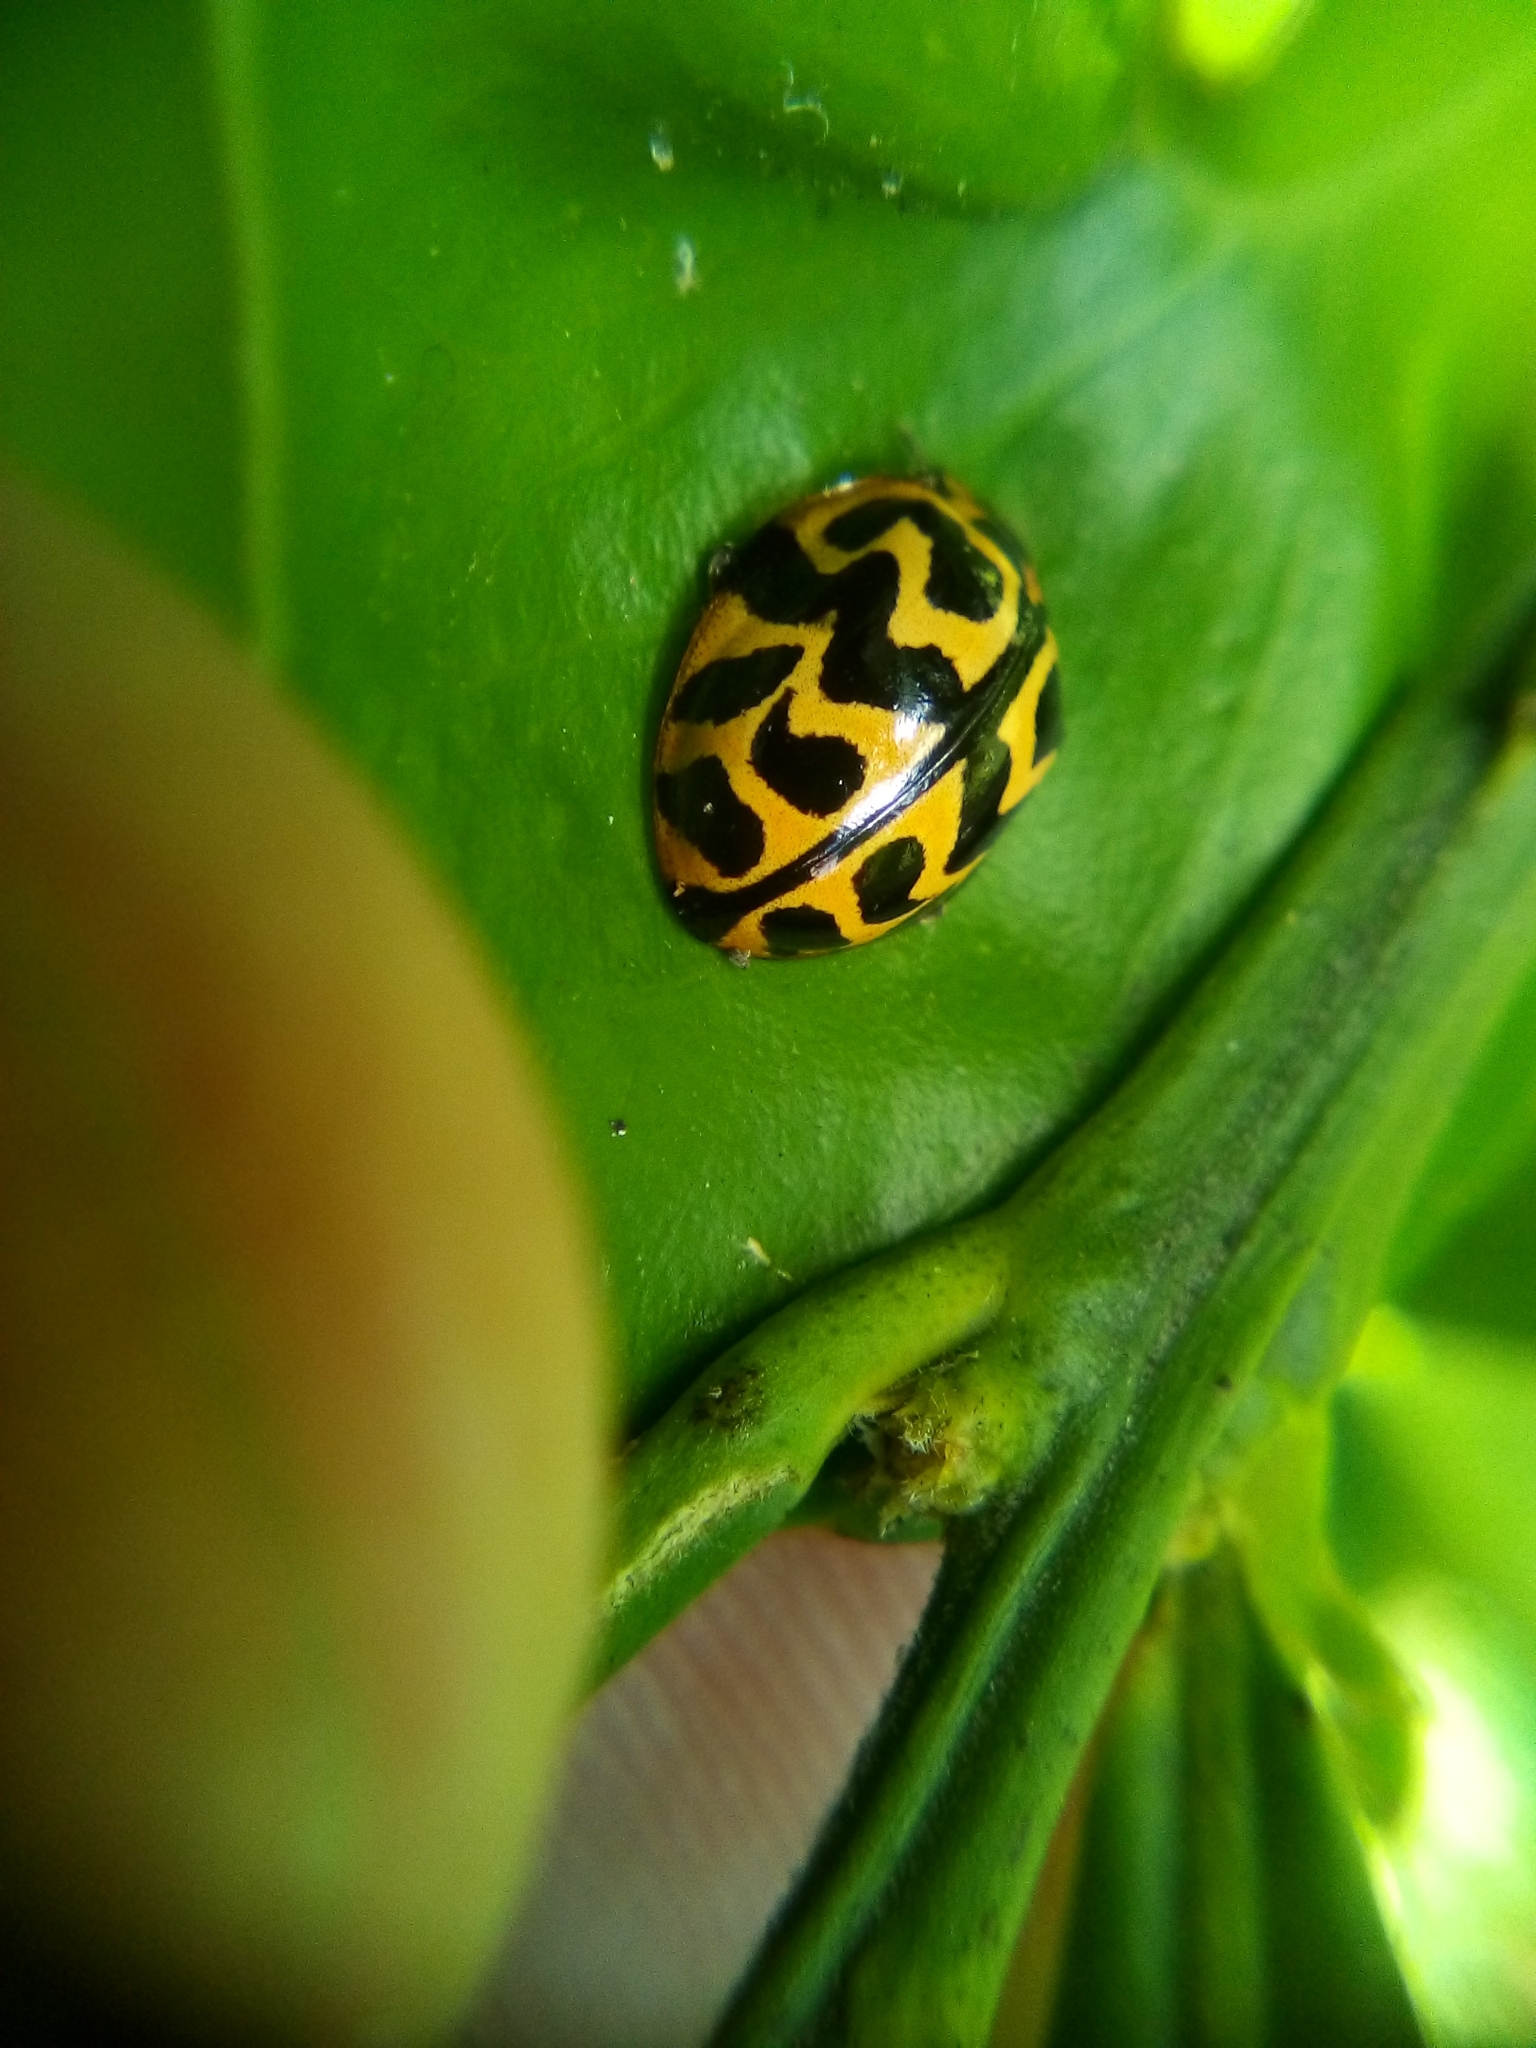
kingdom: Animalia
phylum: Arthropoda
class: Insecta
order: Coleoptera
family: Coccinellidae
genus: Cleobora
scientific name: Cleobora
